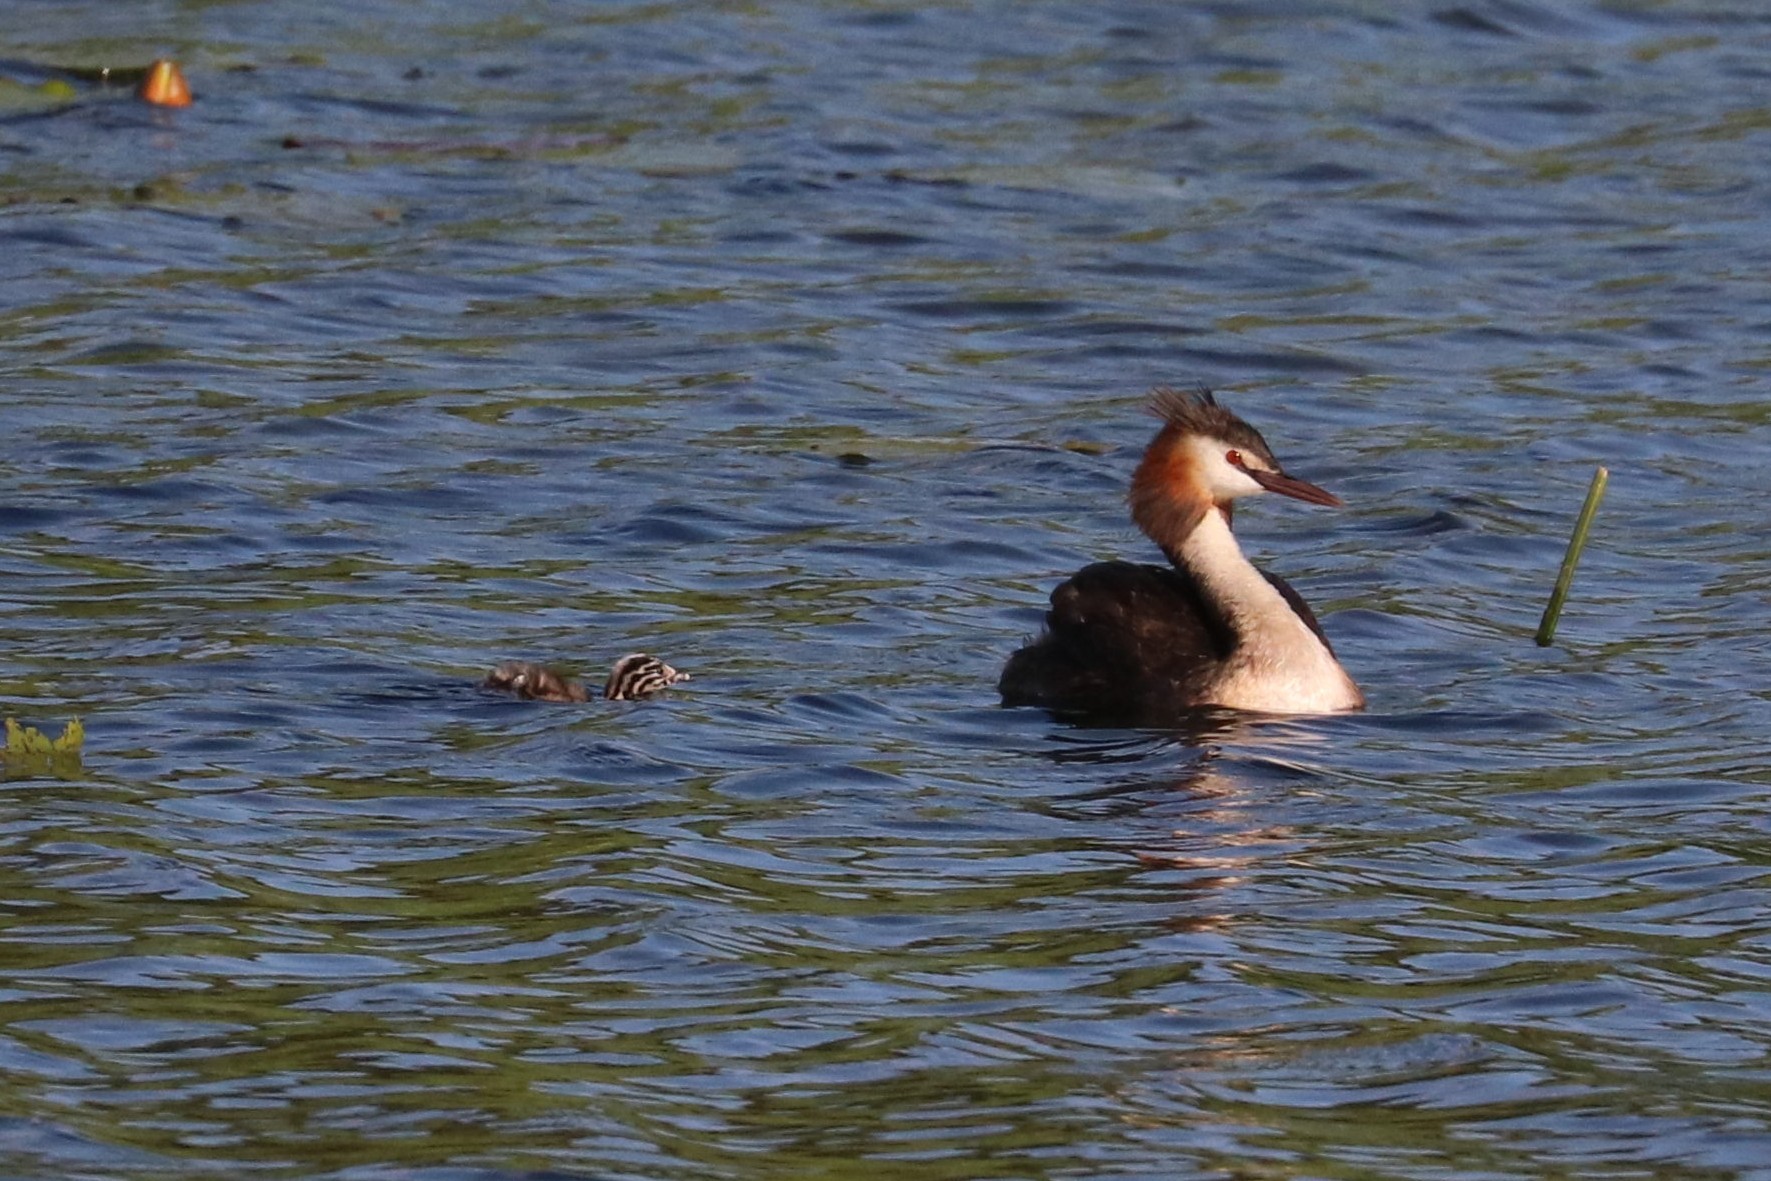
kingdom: Animalia
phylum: Chordata
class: Aves
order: Podicipediformes
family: Podicipedidae
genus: Podiceps
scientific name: Podiceps cristatus
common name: Great crested grebe
